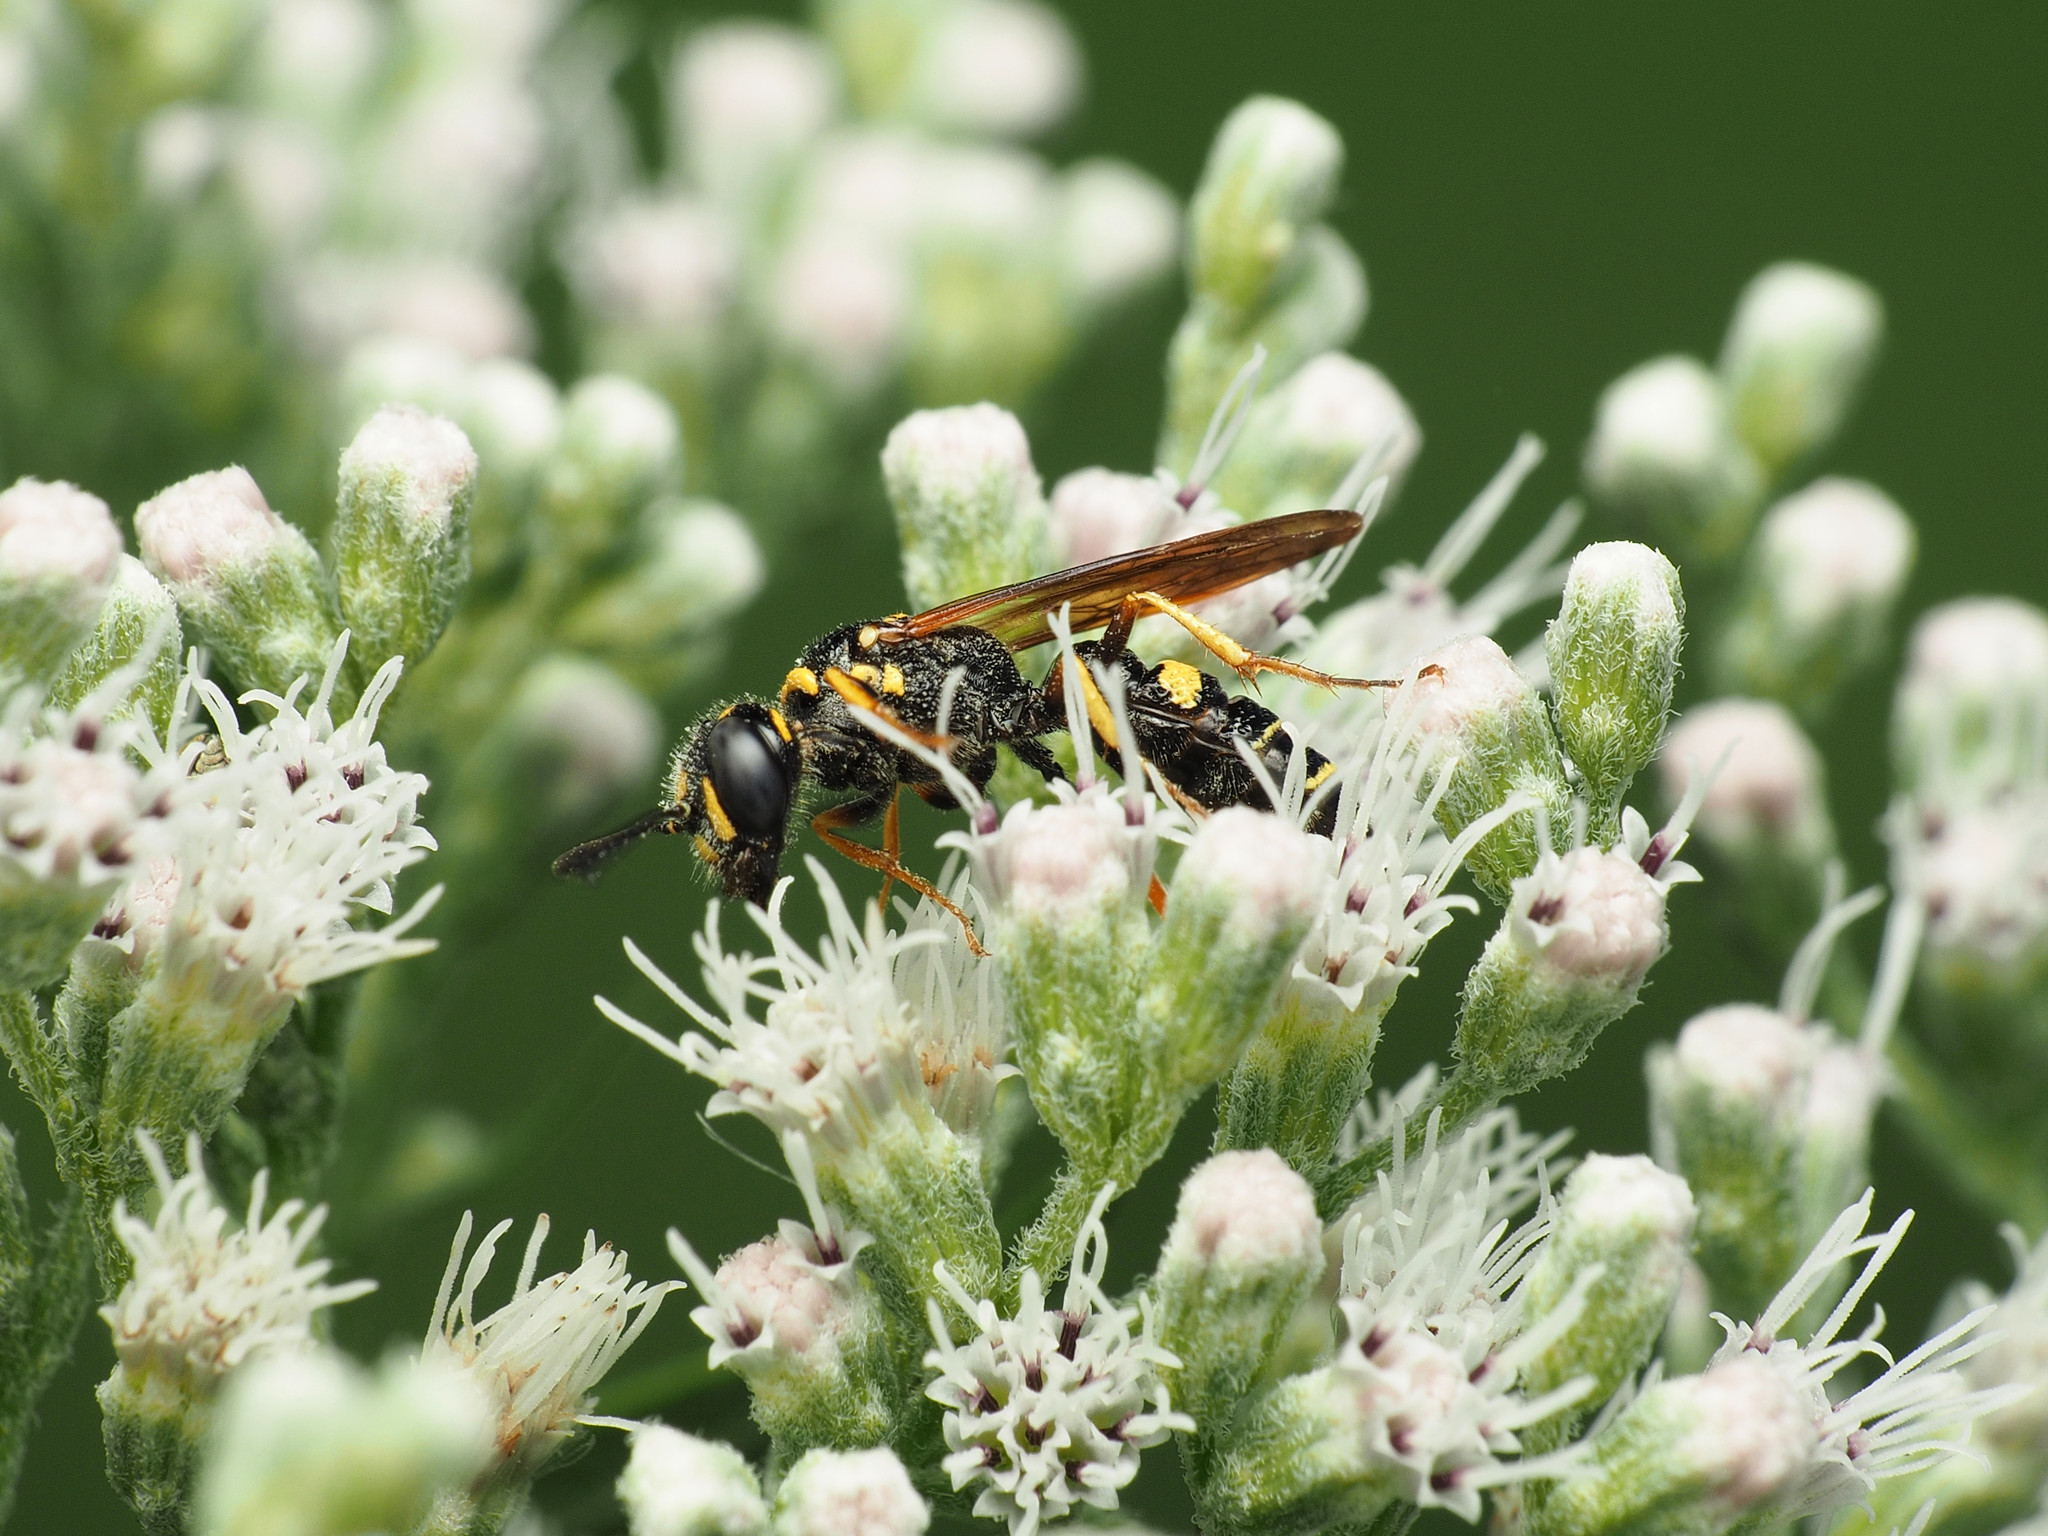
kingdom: Animalia
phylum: Arthropoda
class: Insecta
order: Hymenoptera
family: Crabronidae
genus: Philanthus
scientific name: Philanthus gibbosus
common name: Humped beewolf
